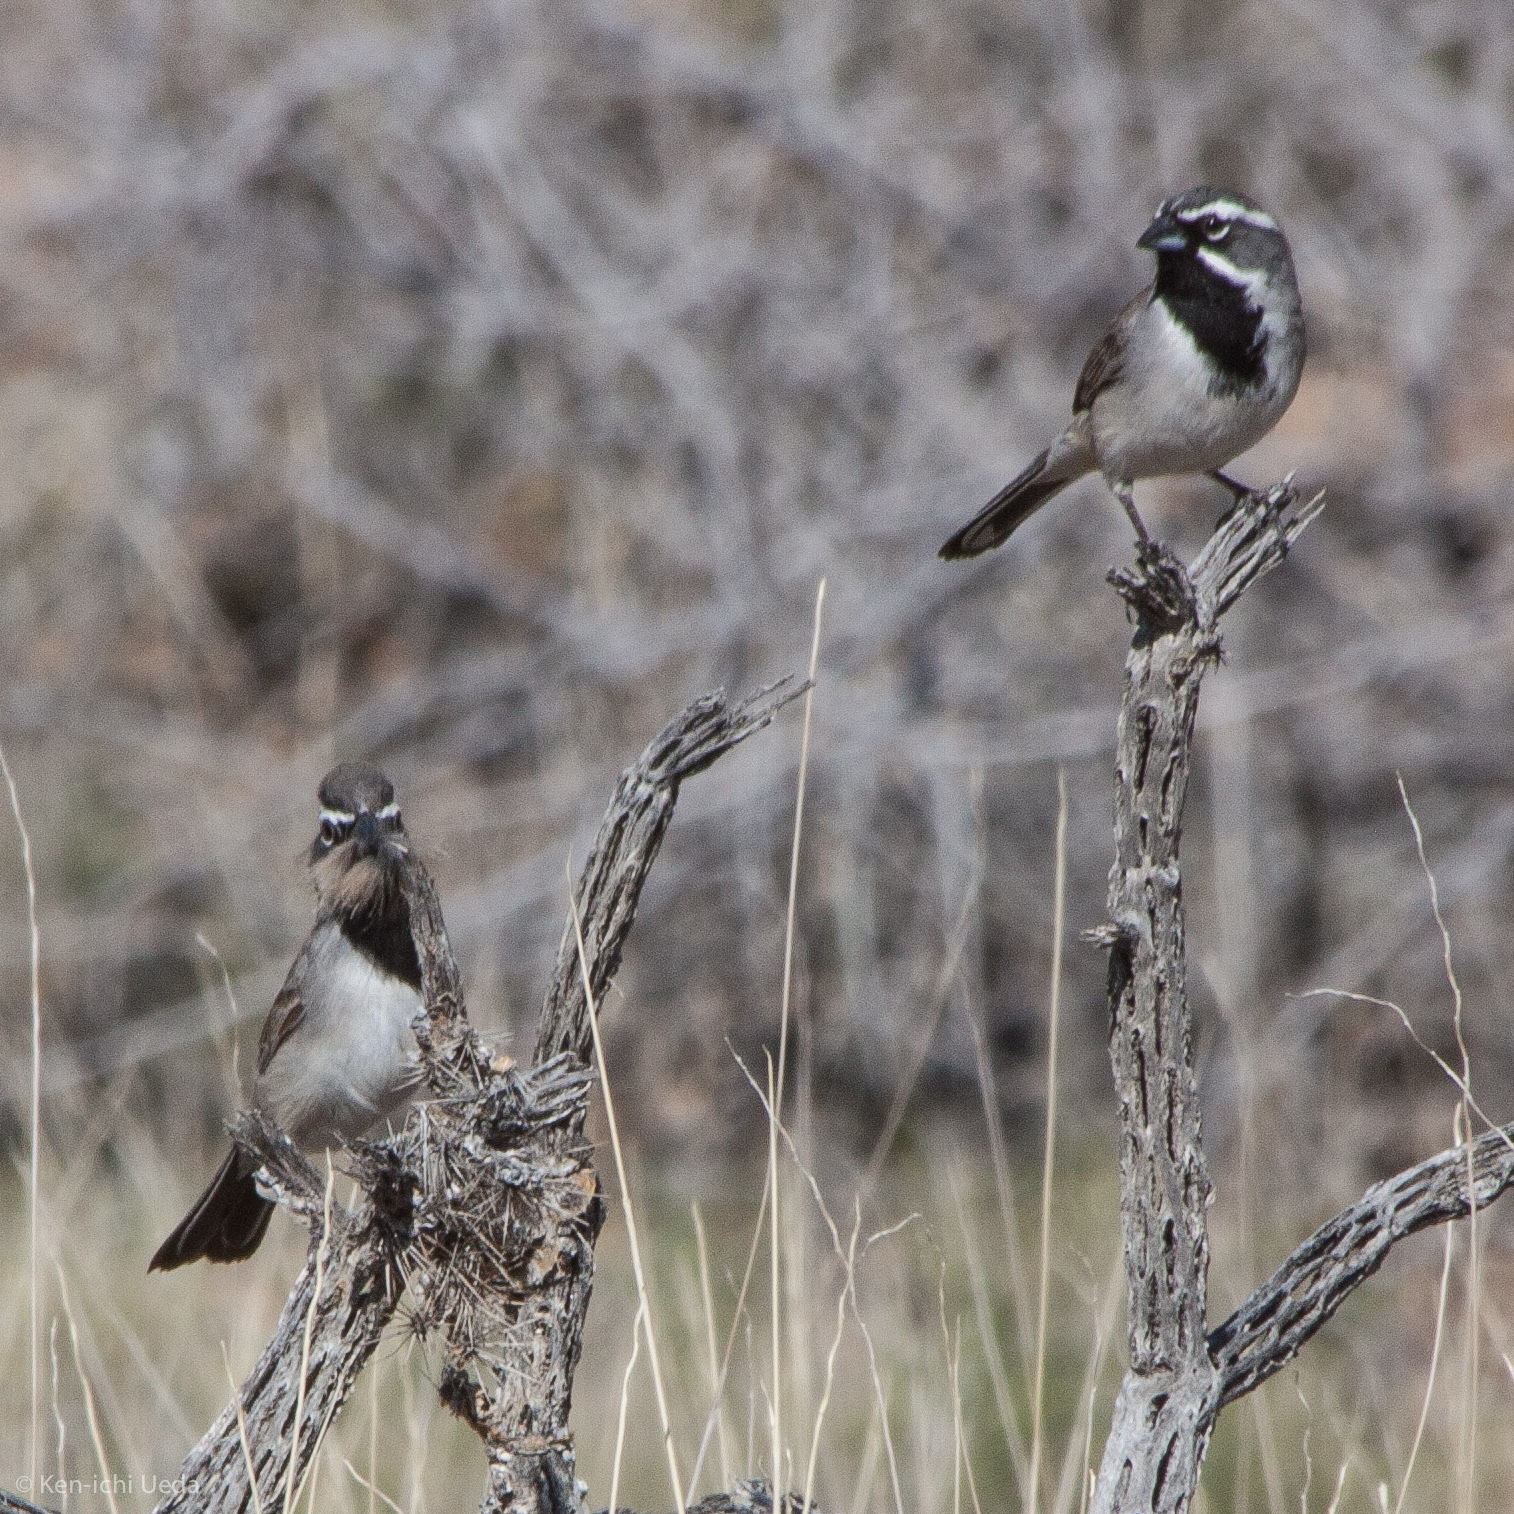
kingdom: Animalia
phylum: Chordata
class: Aves
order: Passeriformes
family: Passerellidae
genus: Amphispiza
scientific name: Amphispiza bilineata
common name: Black-throated sparrow
